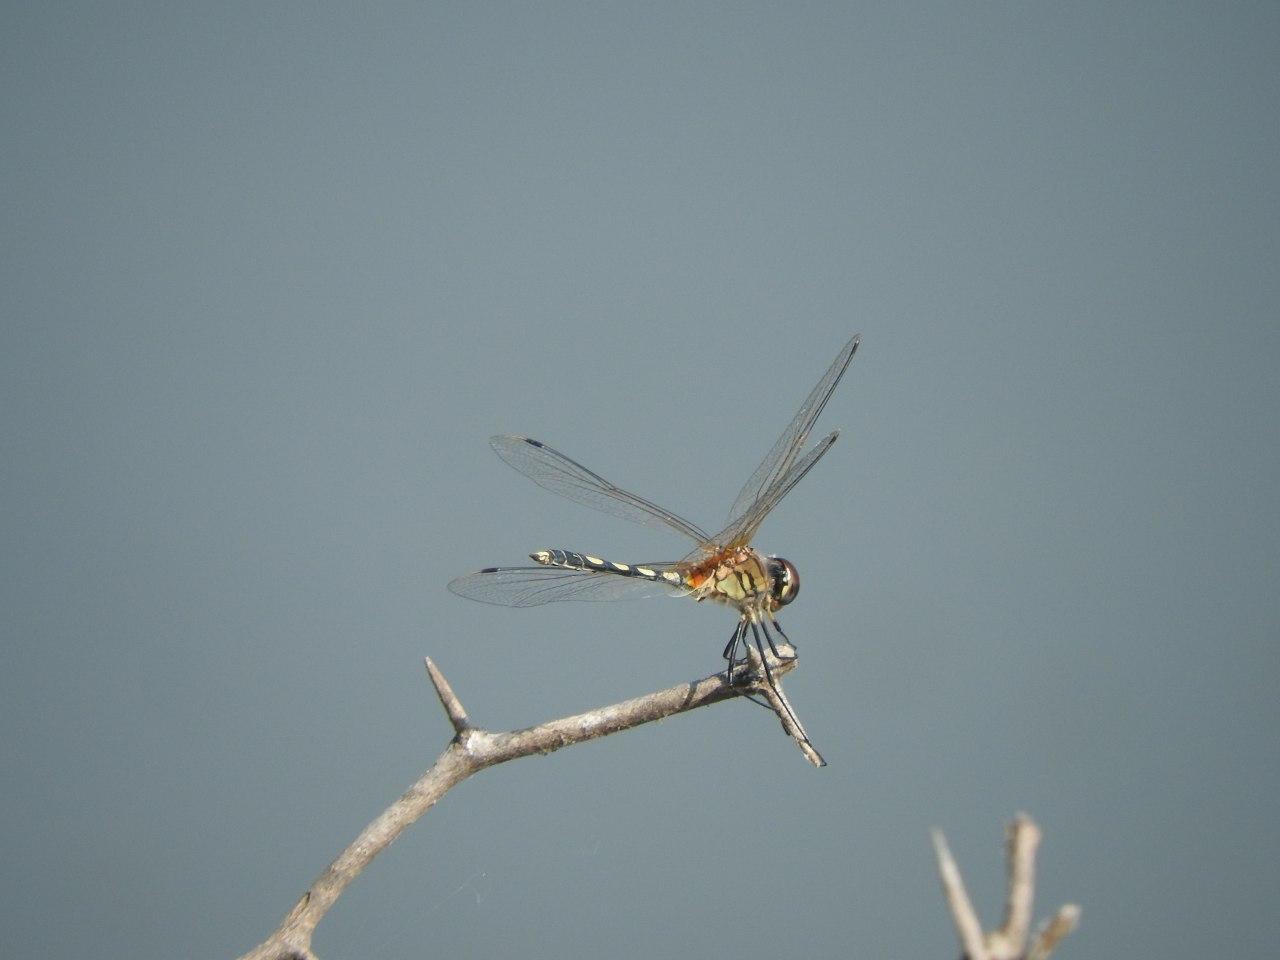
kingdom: Animalia
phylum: Arthropoda
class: Insecta
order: Odonata
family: Libellulidae
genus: Trithemis
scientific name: Trithemis pallidinervis
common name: Dancing dropwing
